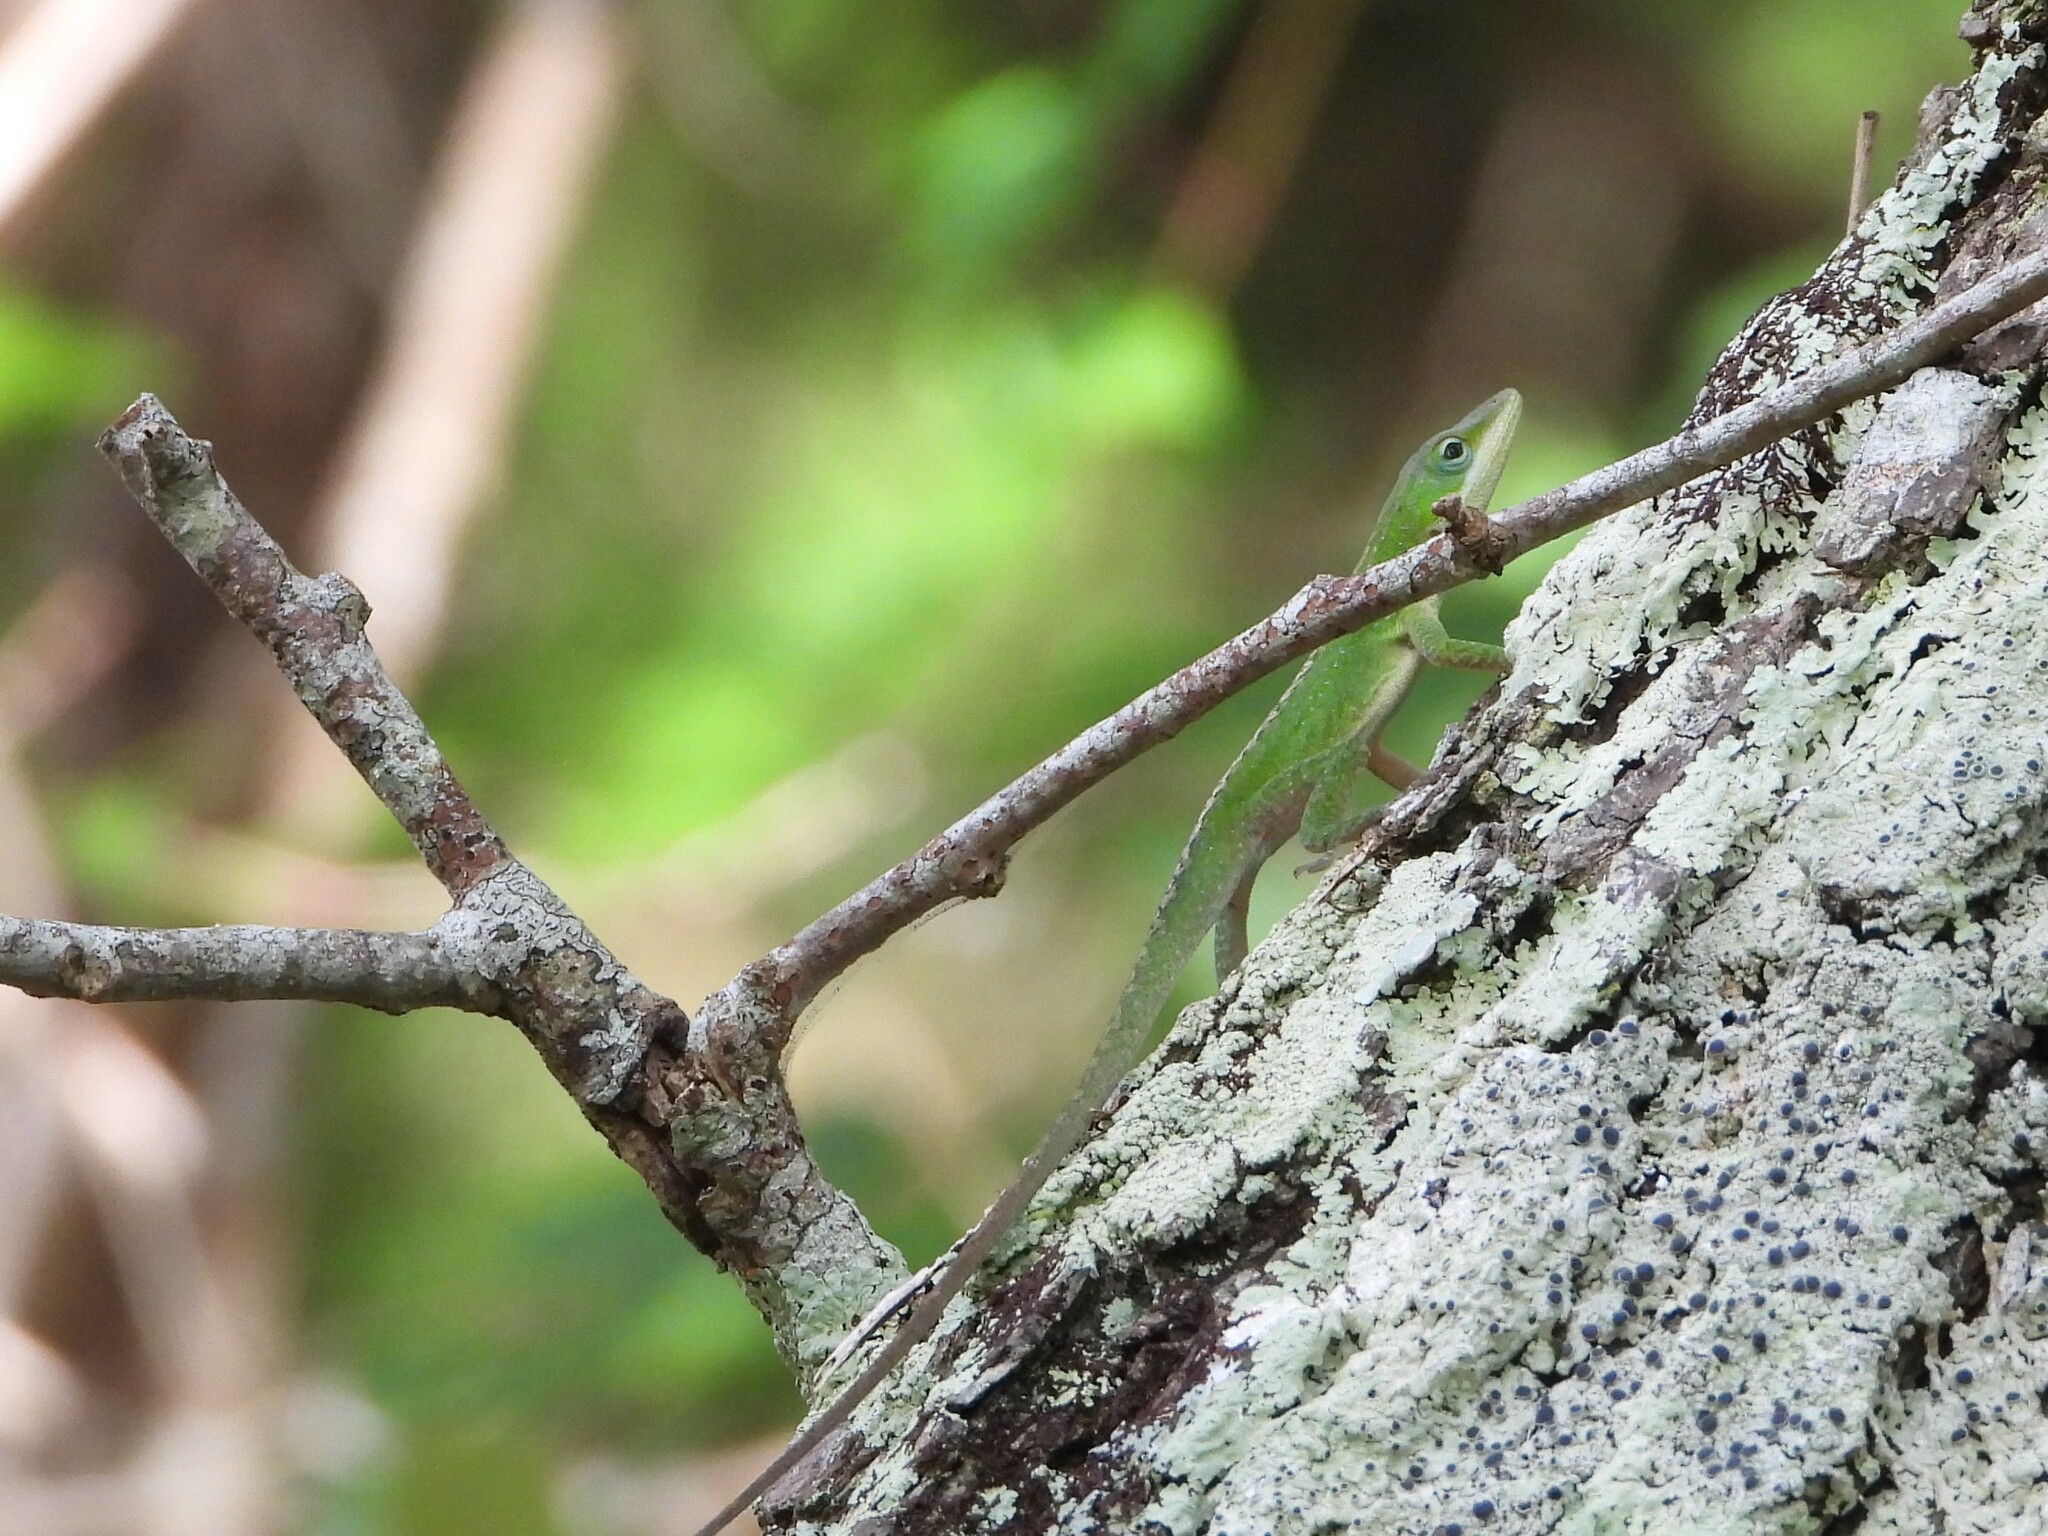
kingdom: Animalia
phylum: Chordata
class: Squamata
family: Dactyloidae
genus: Anolis
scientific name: Anolis carolinensis
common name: Green anole
